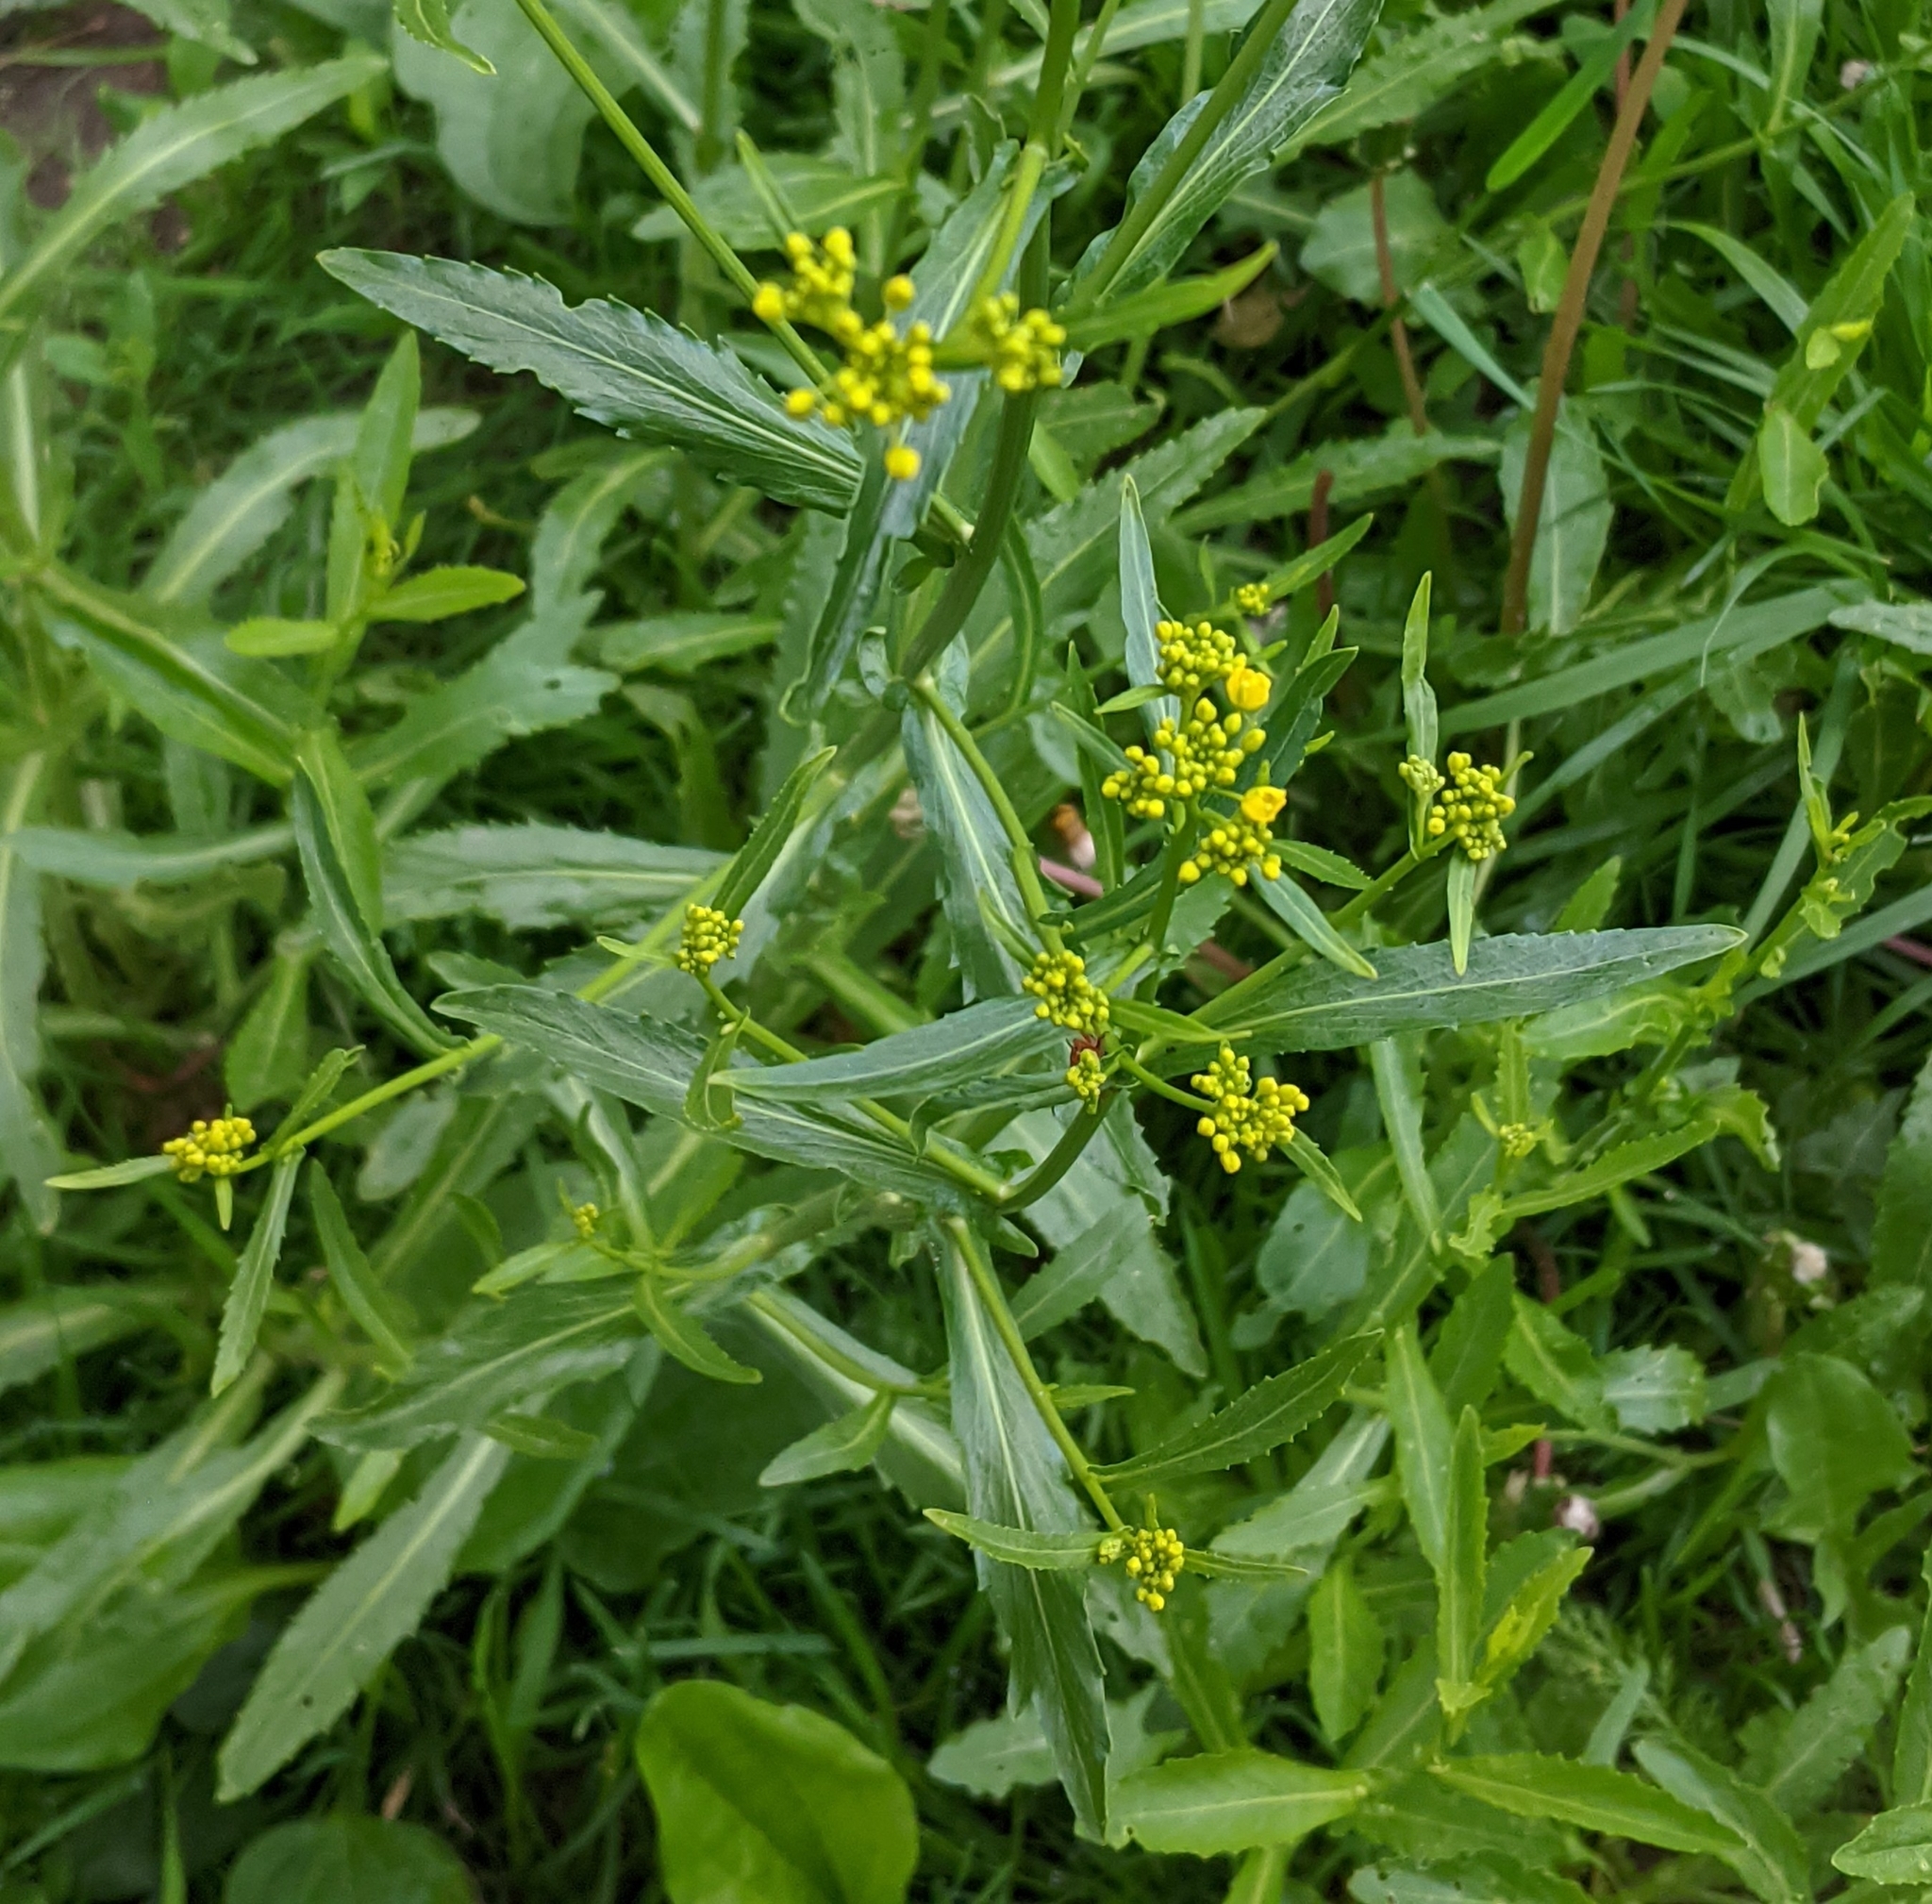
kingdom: Plantae
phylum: Tracheophyta
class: Magnoliopsida
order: Brassicales
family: Brassicaceae
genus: Rorippa
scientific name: Rorippa austriaca
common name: Austrian yellow-cress
